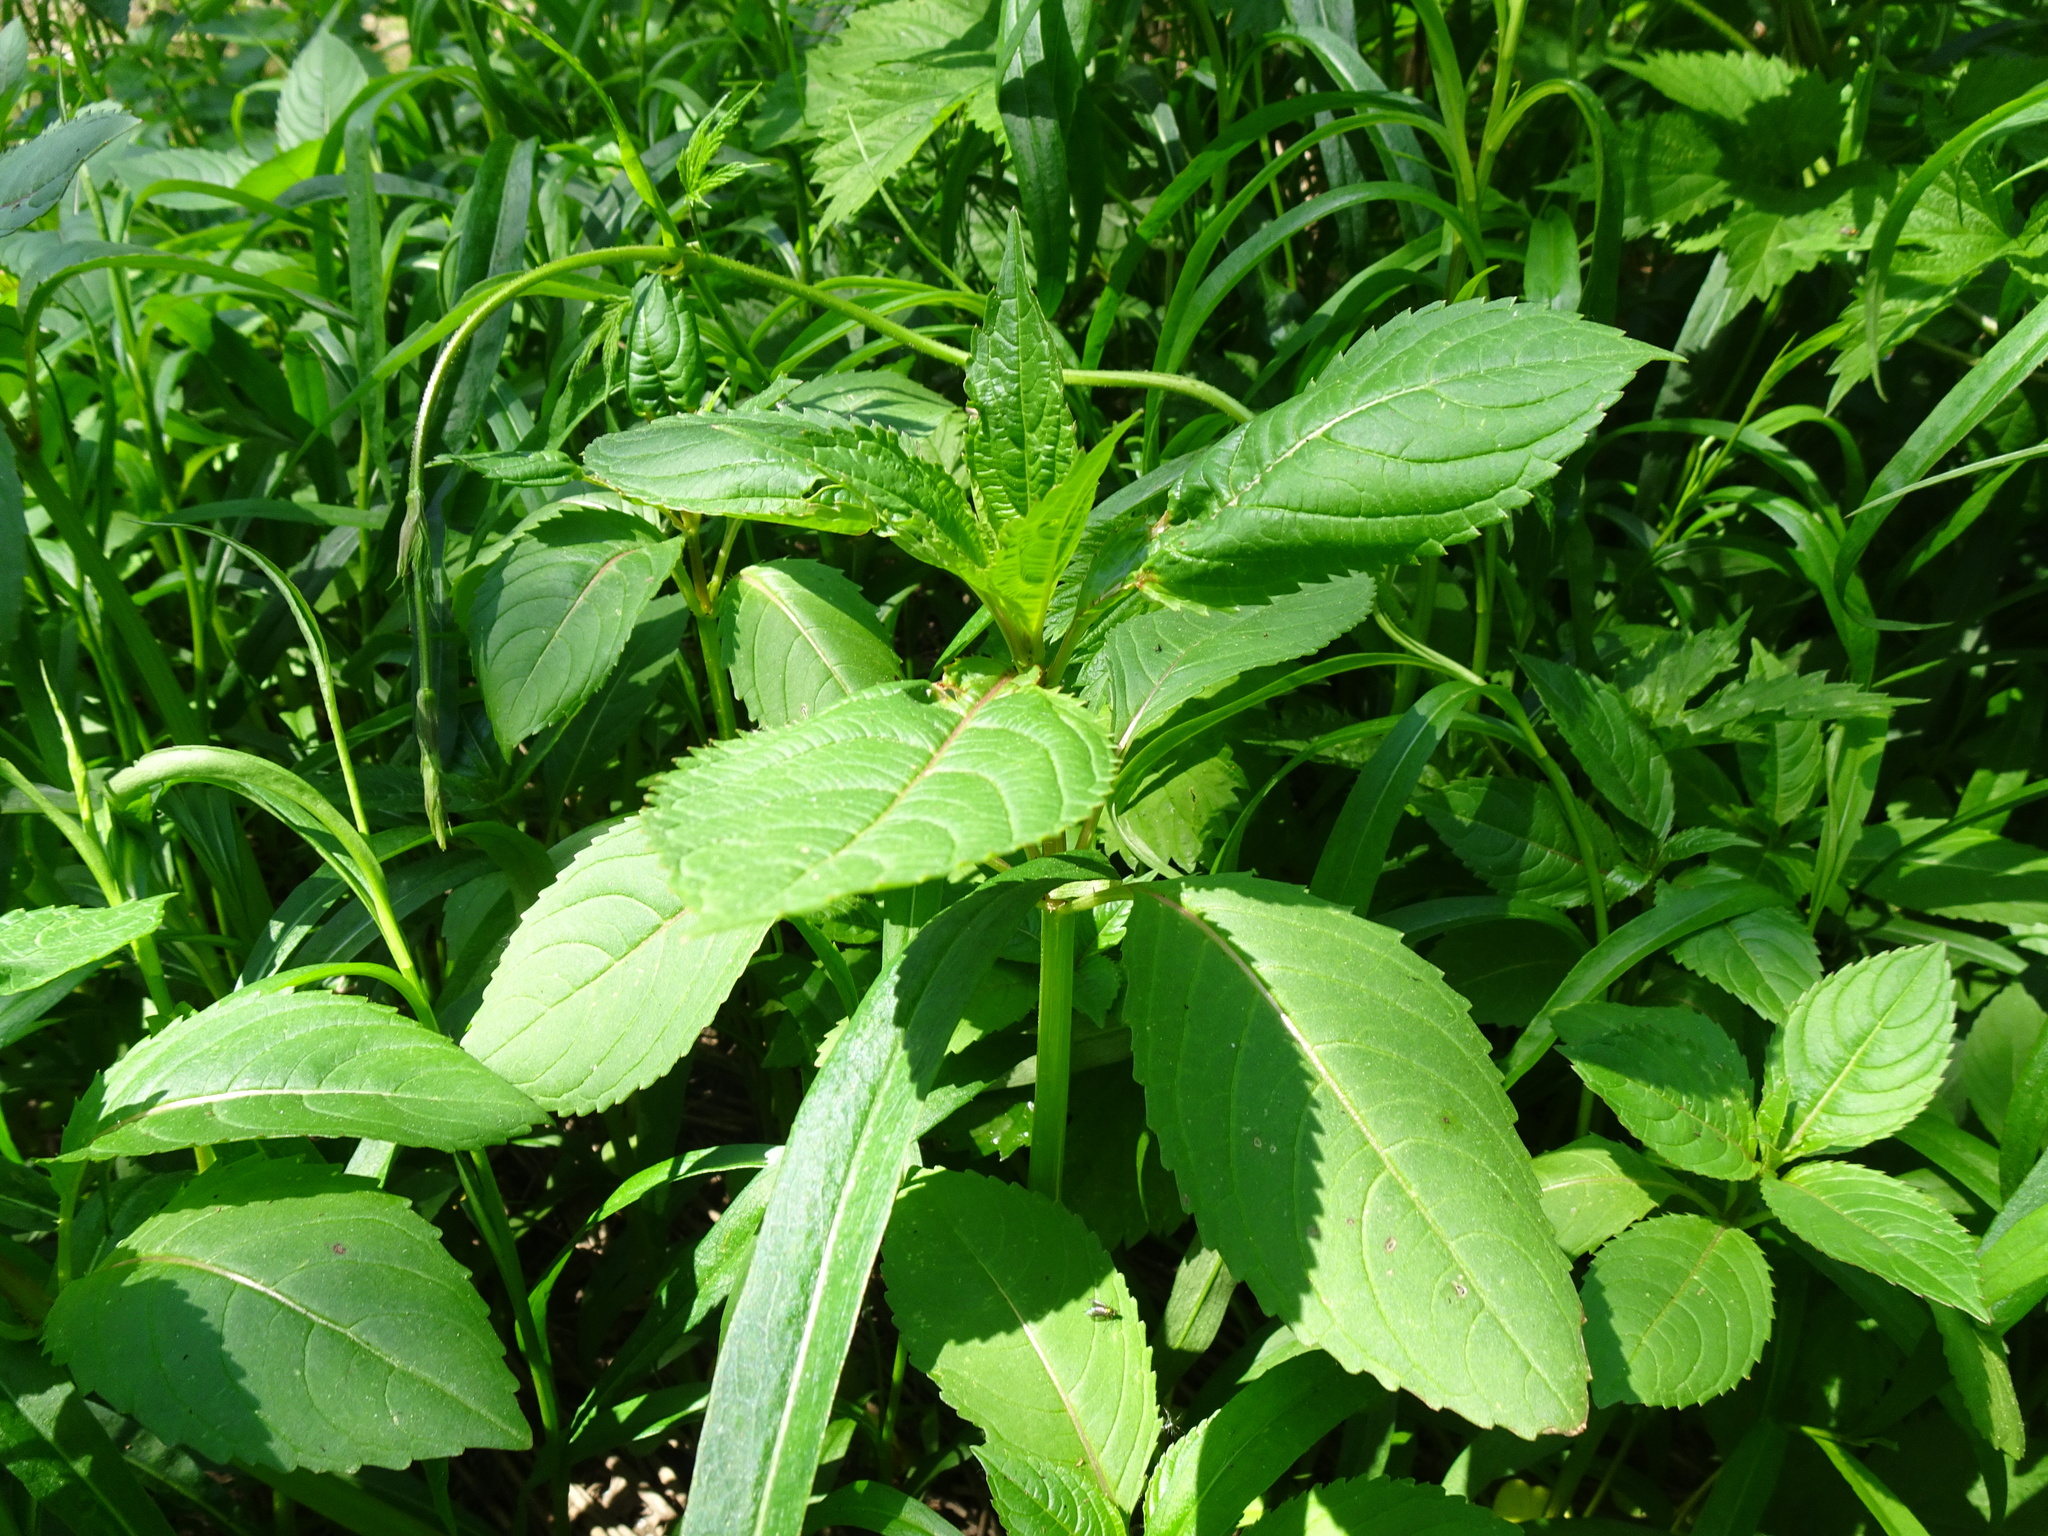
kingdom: Plantae
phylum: Tracheophyta
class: Magnoliopsida
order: Ericales
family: Balsaminaceae
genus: Impatiens
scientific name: Impatiens glandulifera
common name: Himalayan balsam
